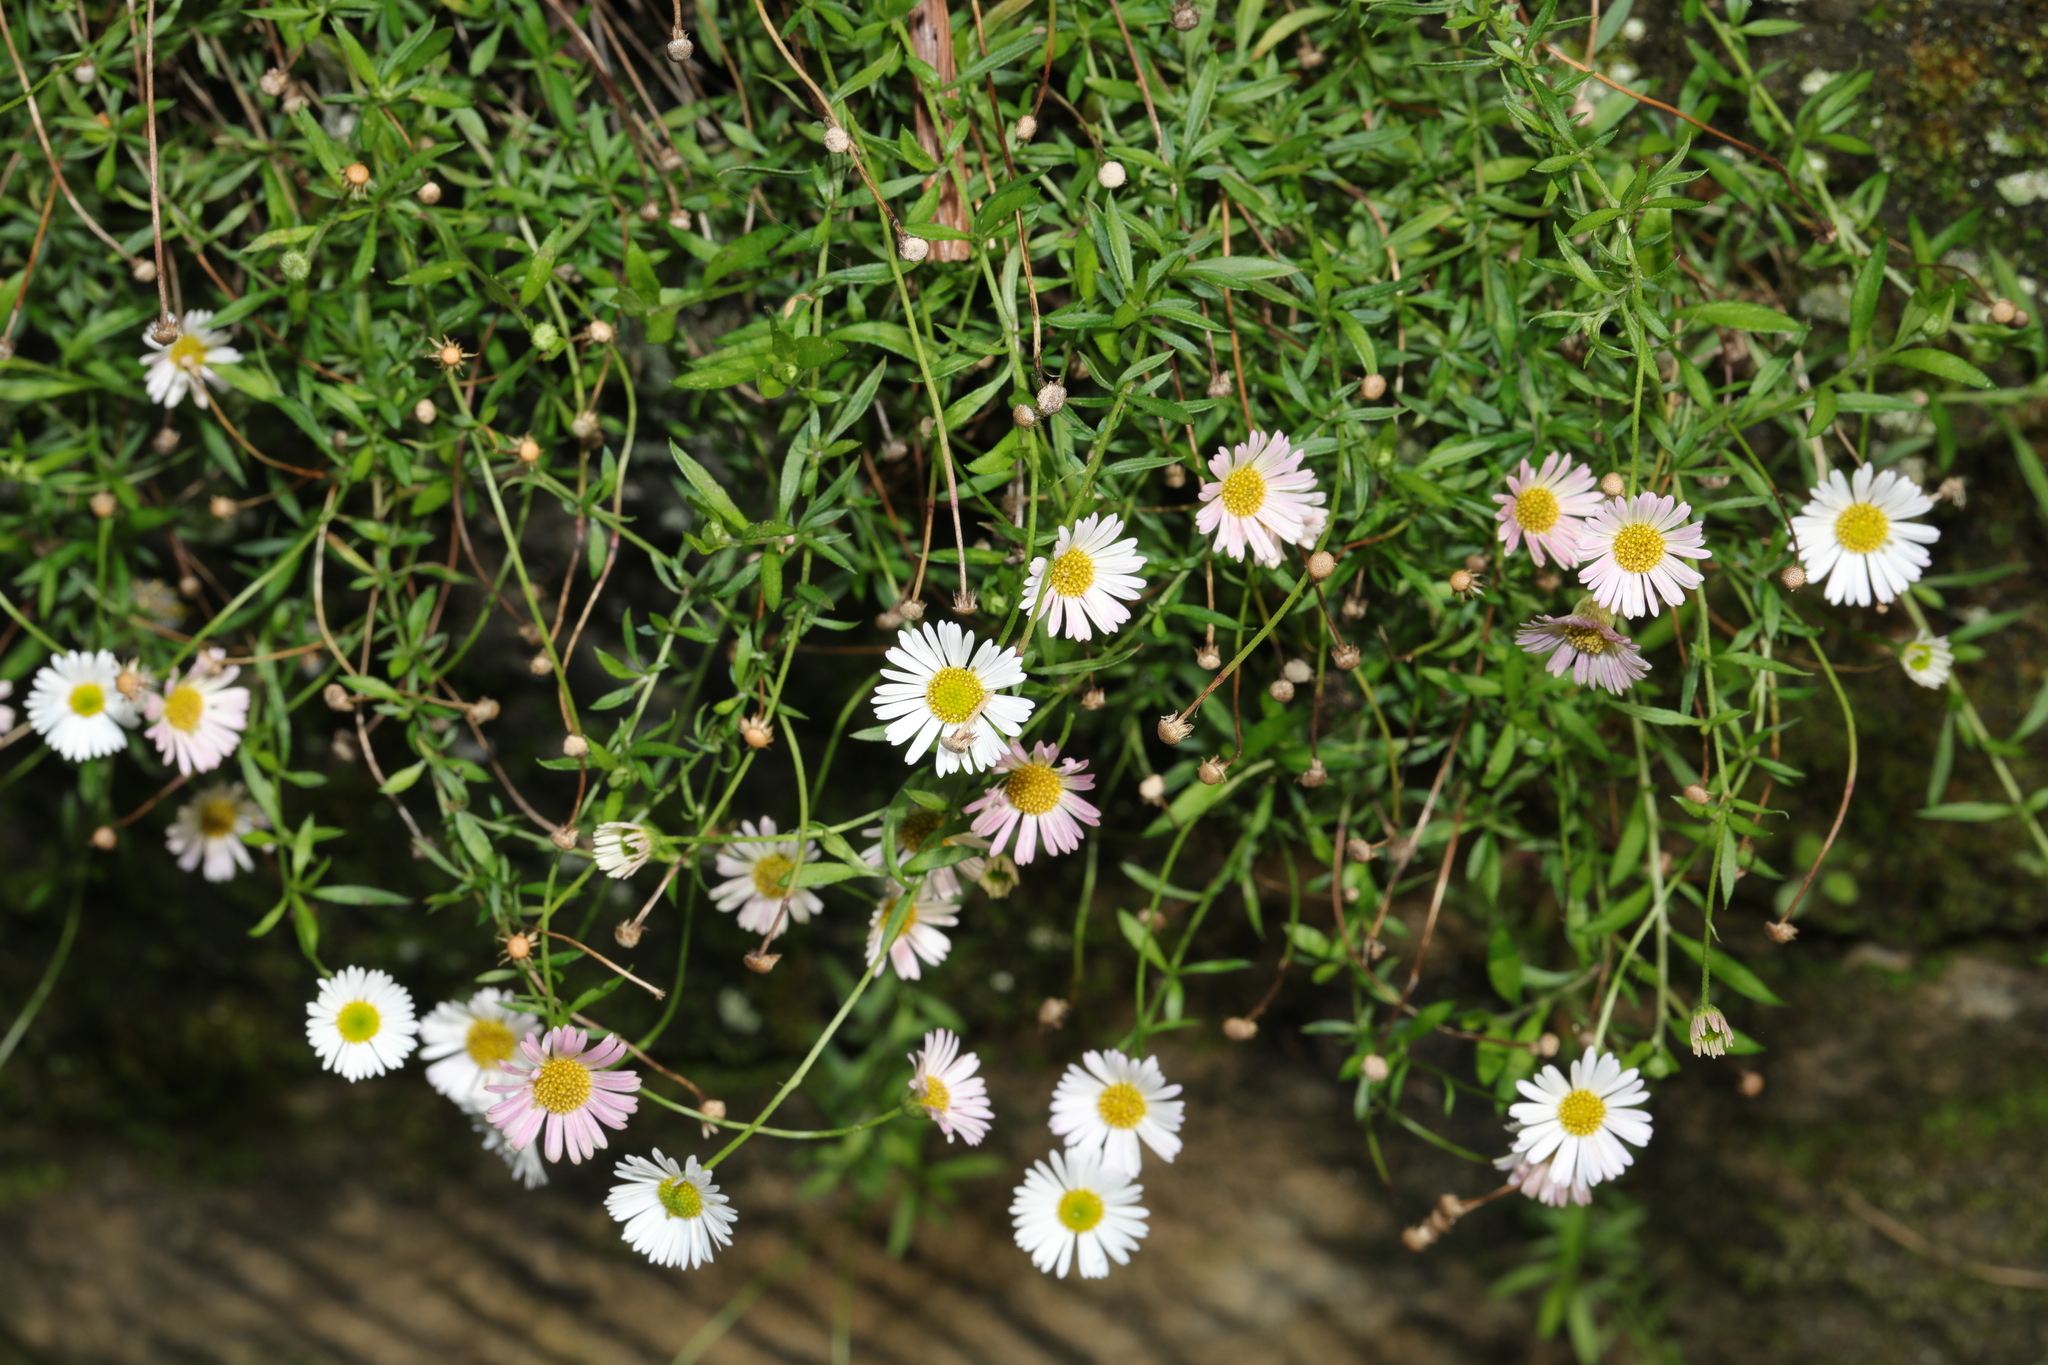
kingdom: Plantae
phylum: Tracheophyta
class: Magnoliopsida
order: Asterales
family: Asteraceae
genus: Erigeron
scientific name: Erigeron karvinskianus
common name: Mexican fleabane
